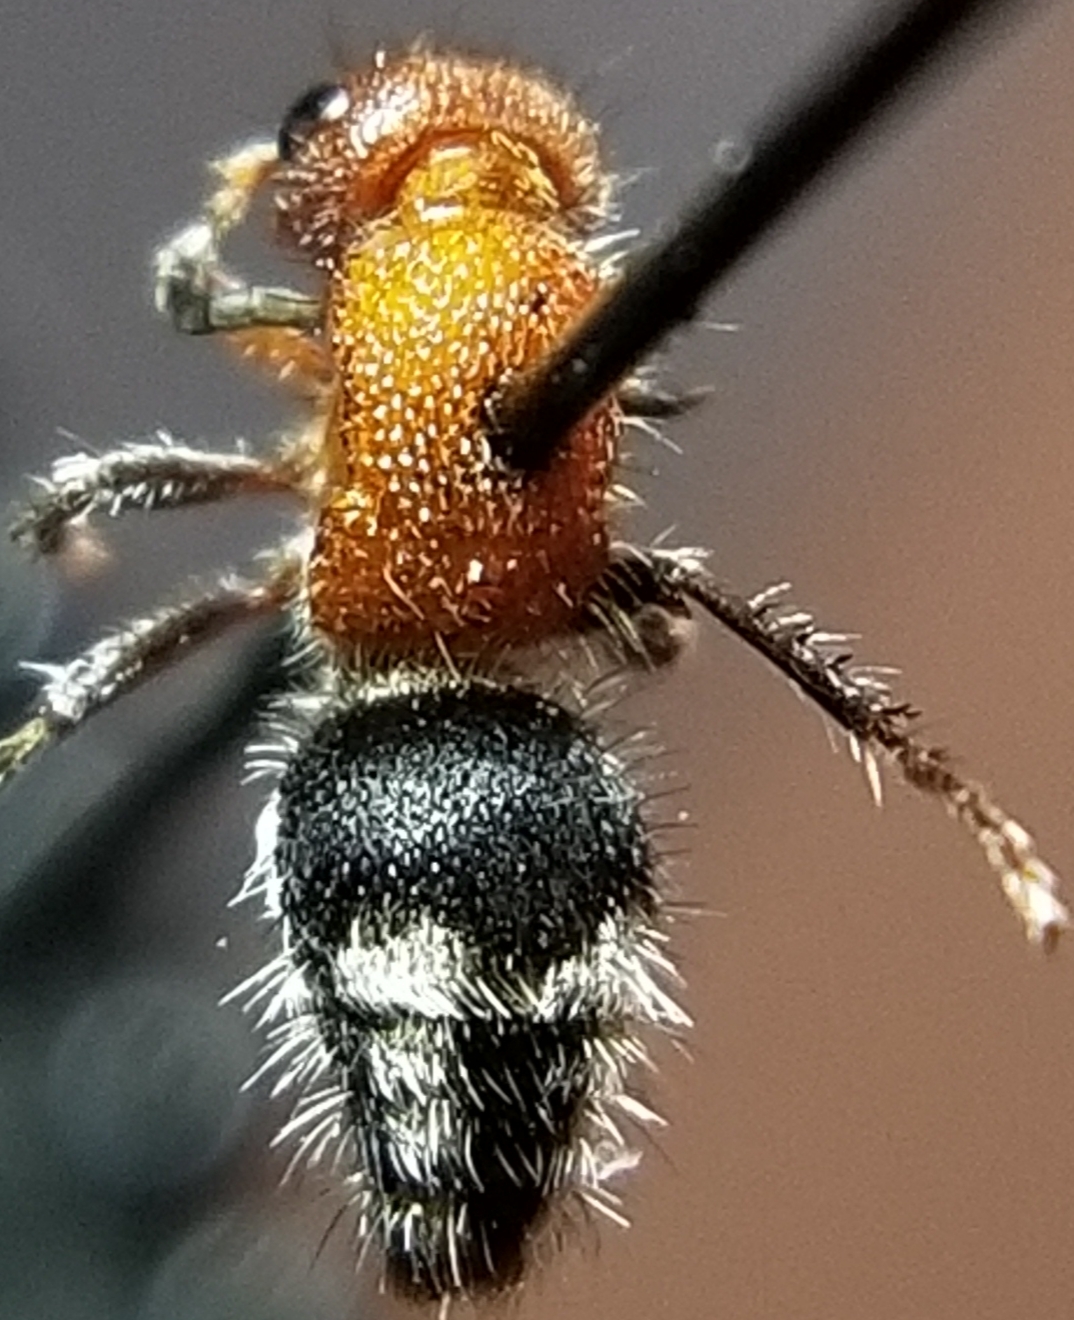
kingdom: Animalia
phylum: Arthropoda
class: Insecta
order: Hymenoptera
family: Mutillidae
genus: Timulla
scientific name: Timulla
